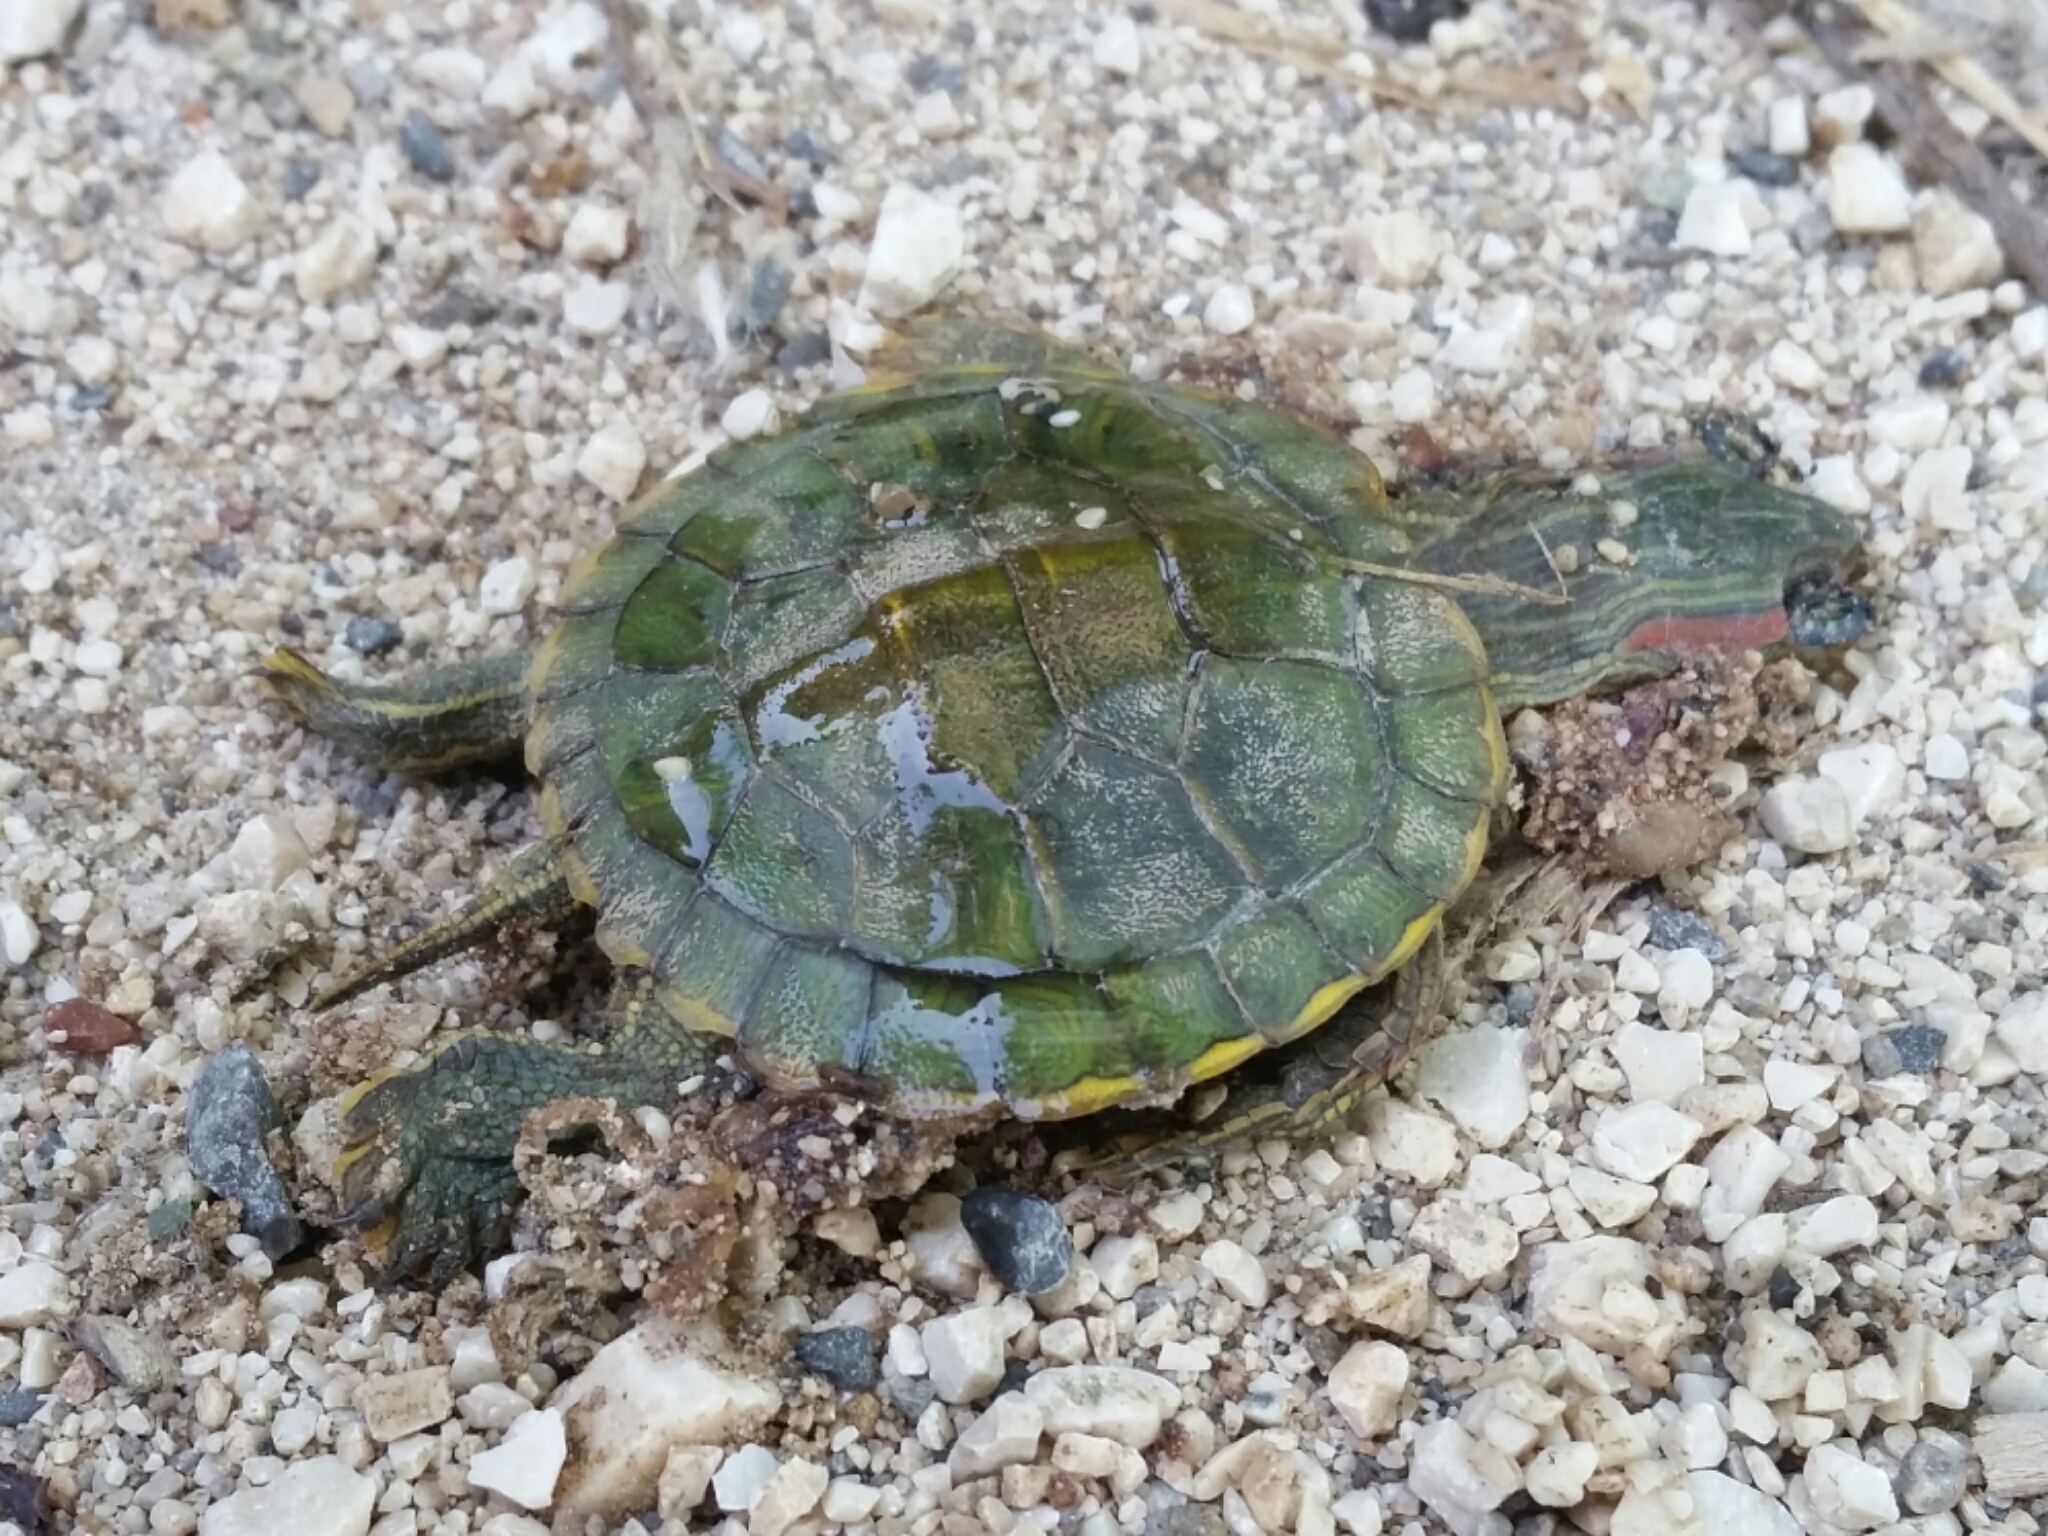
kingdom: Animalia
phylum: Chordata
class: Testudines
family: Emydidae
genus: Trachemys
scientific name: Trachemys scripta
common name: Slider
